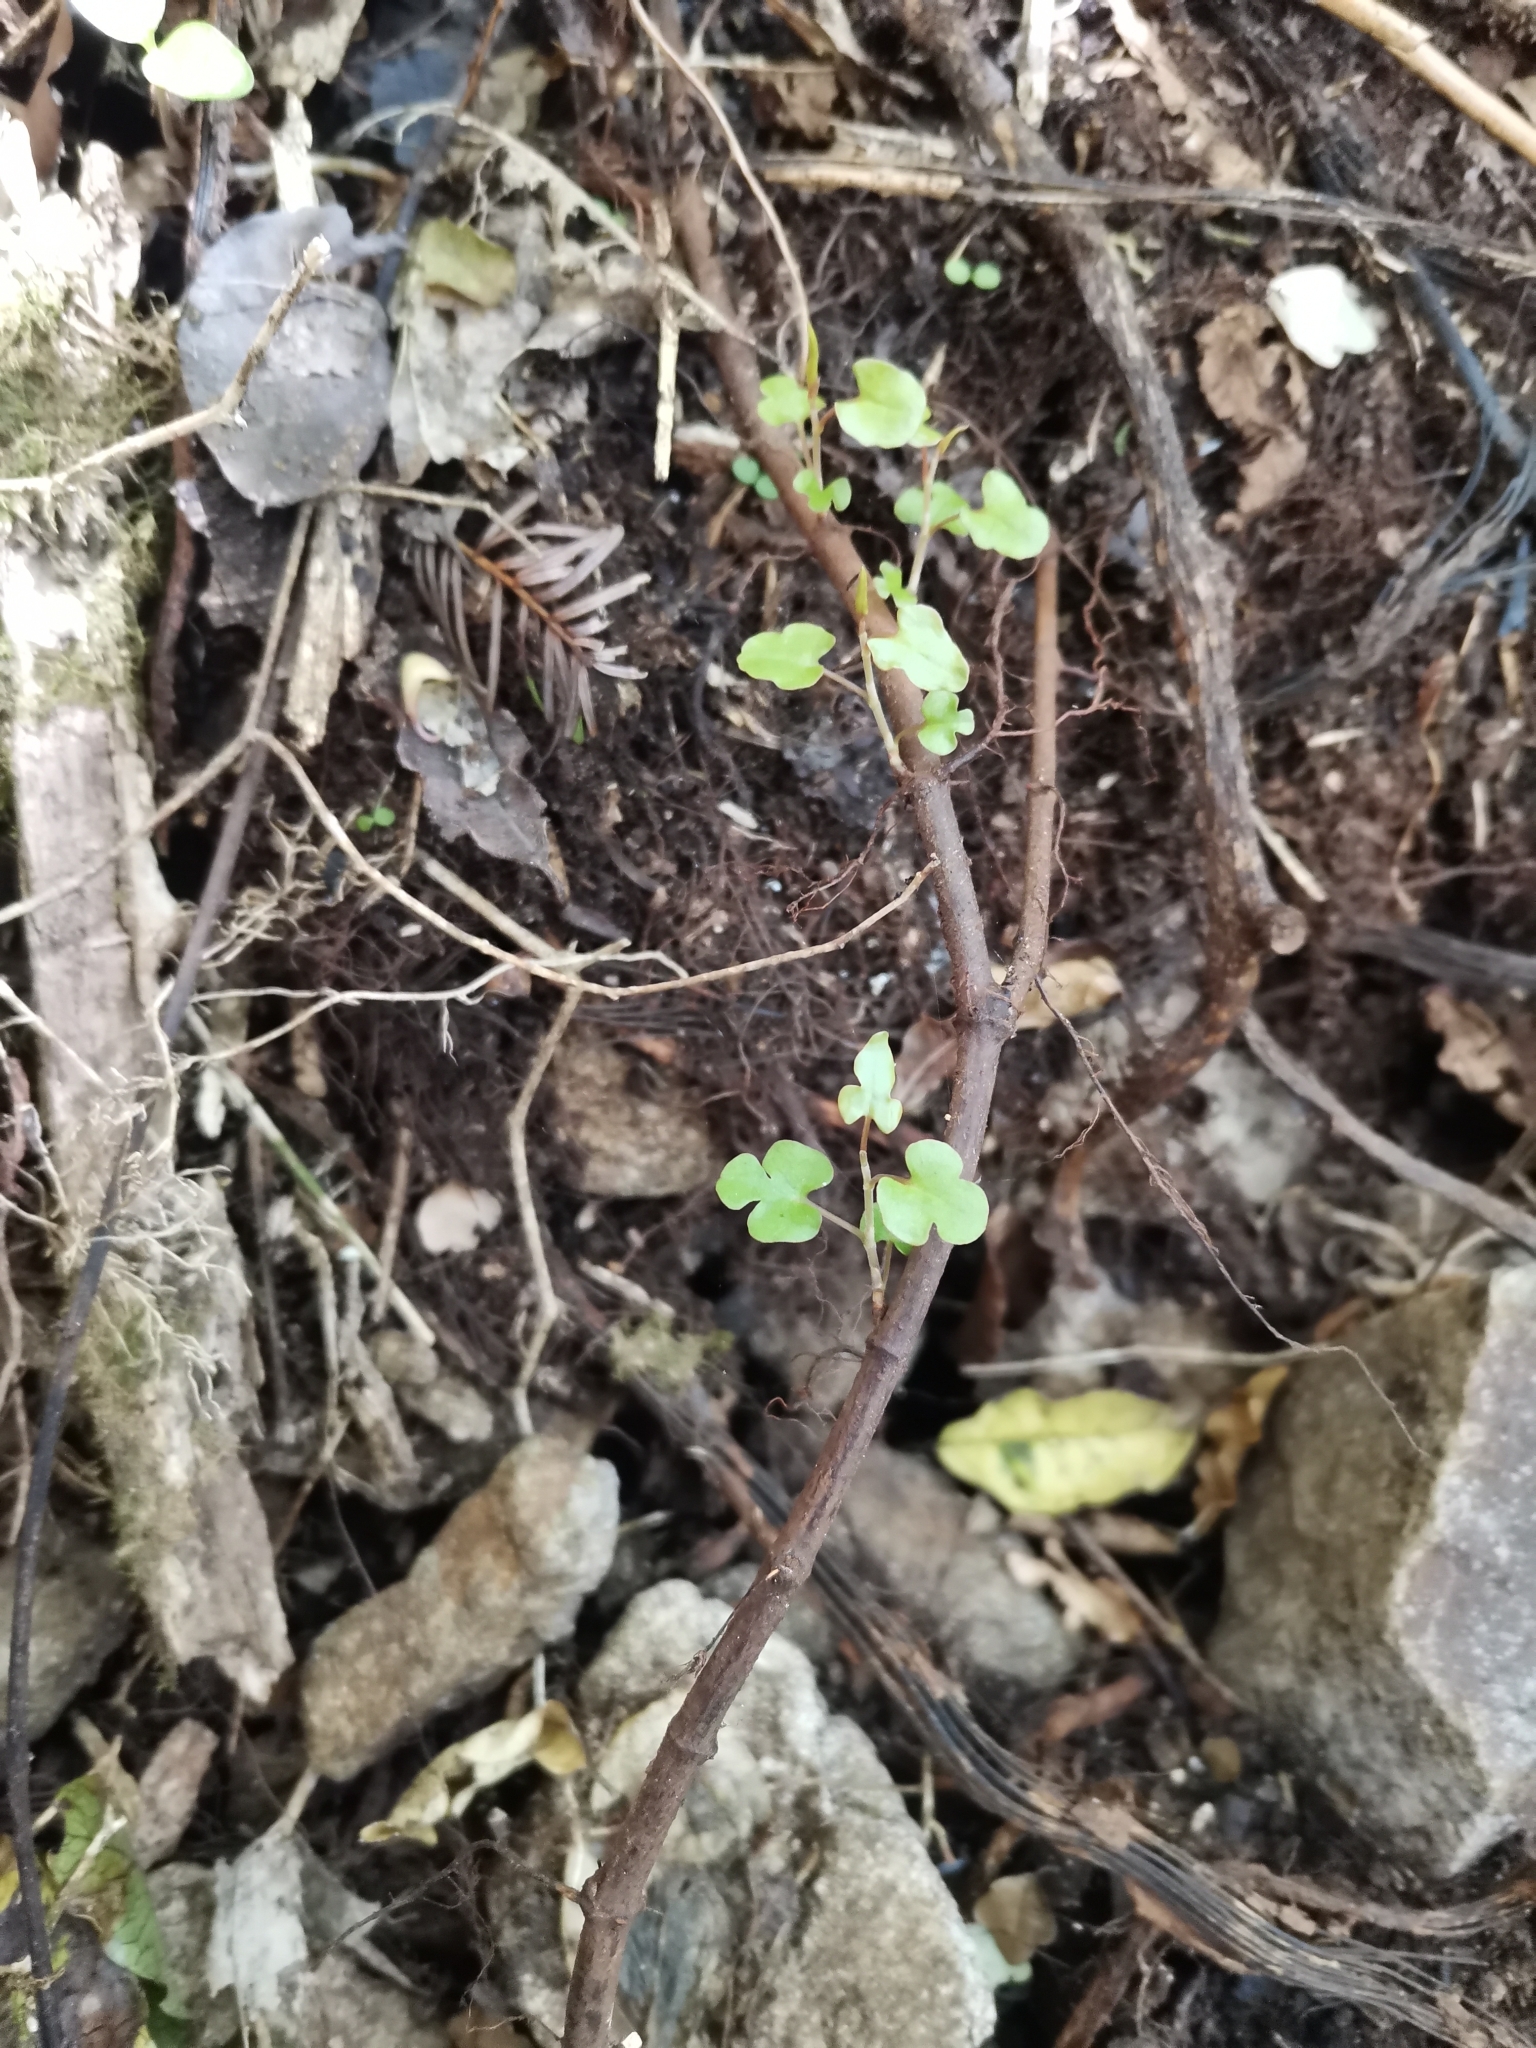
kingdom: Plantae
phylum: Tracheophyta
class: Magnoliopsida
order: Caryophyllales
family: Polygonaceae
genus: Muehlenbeckia
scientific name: Muehlenbeckia australis
